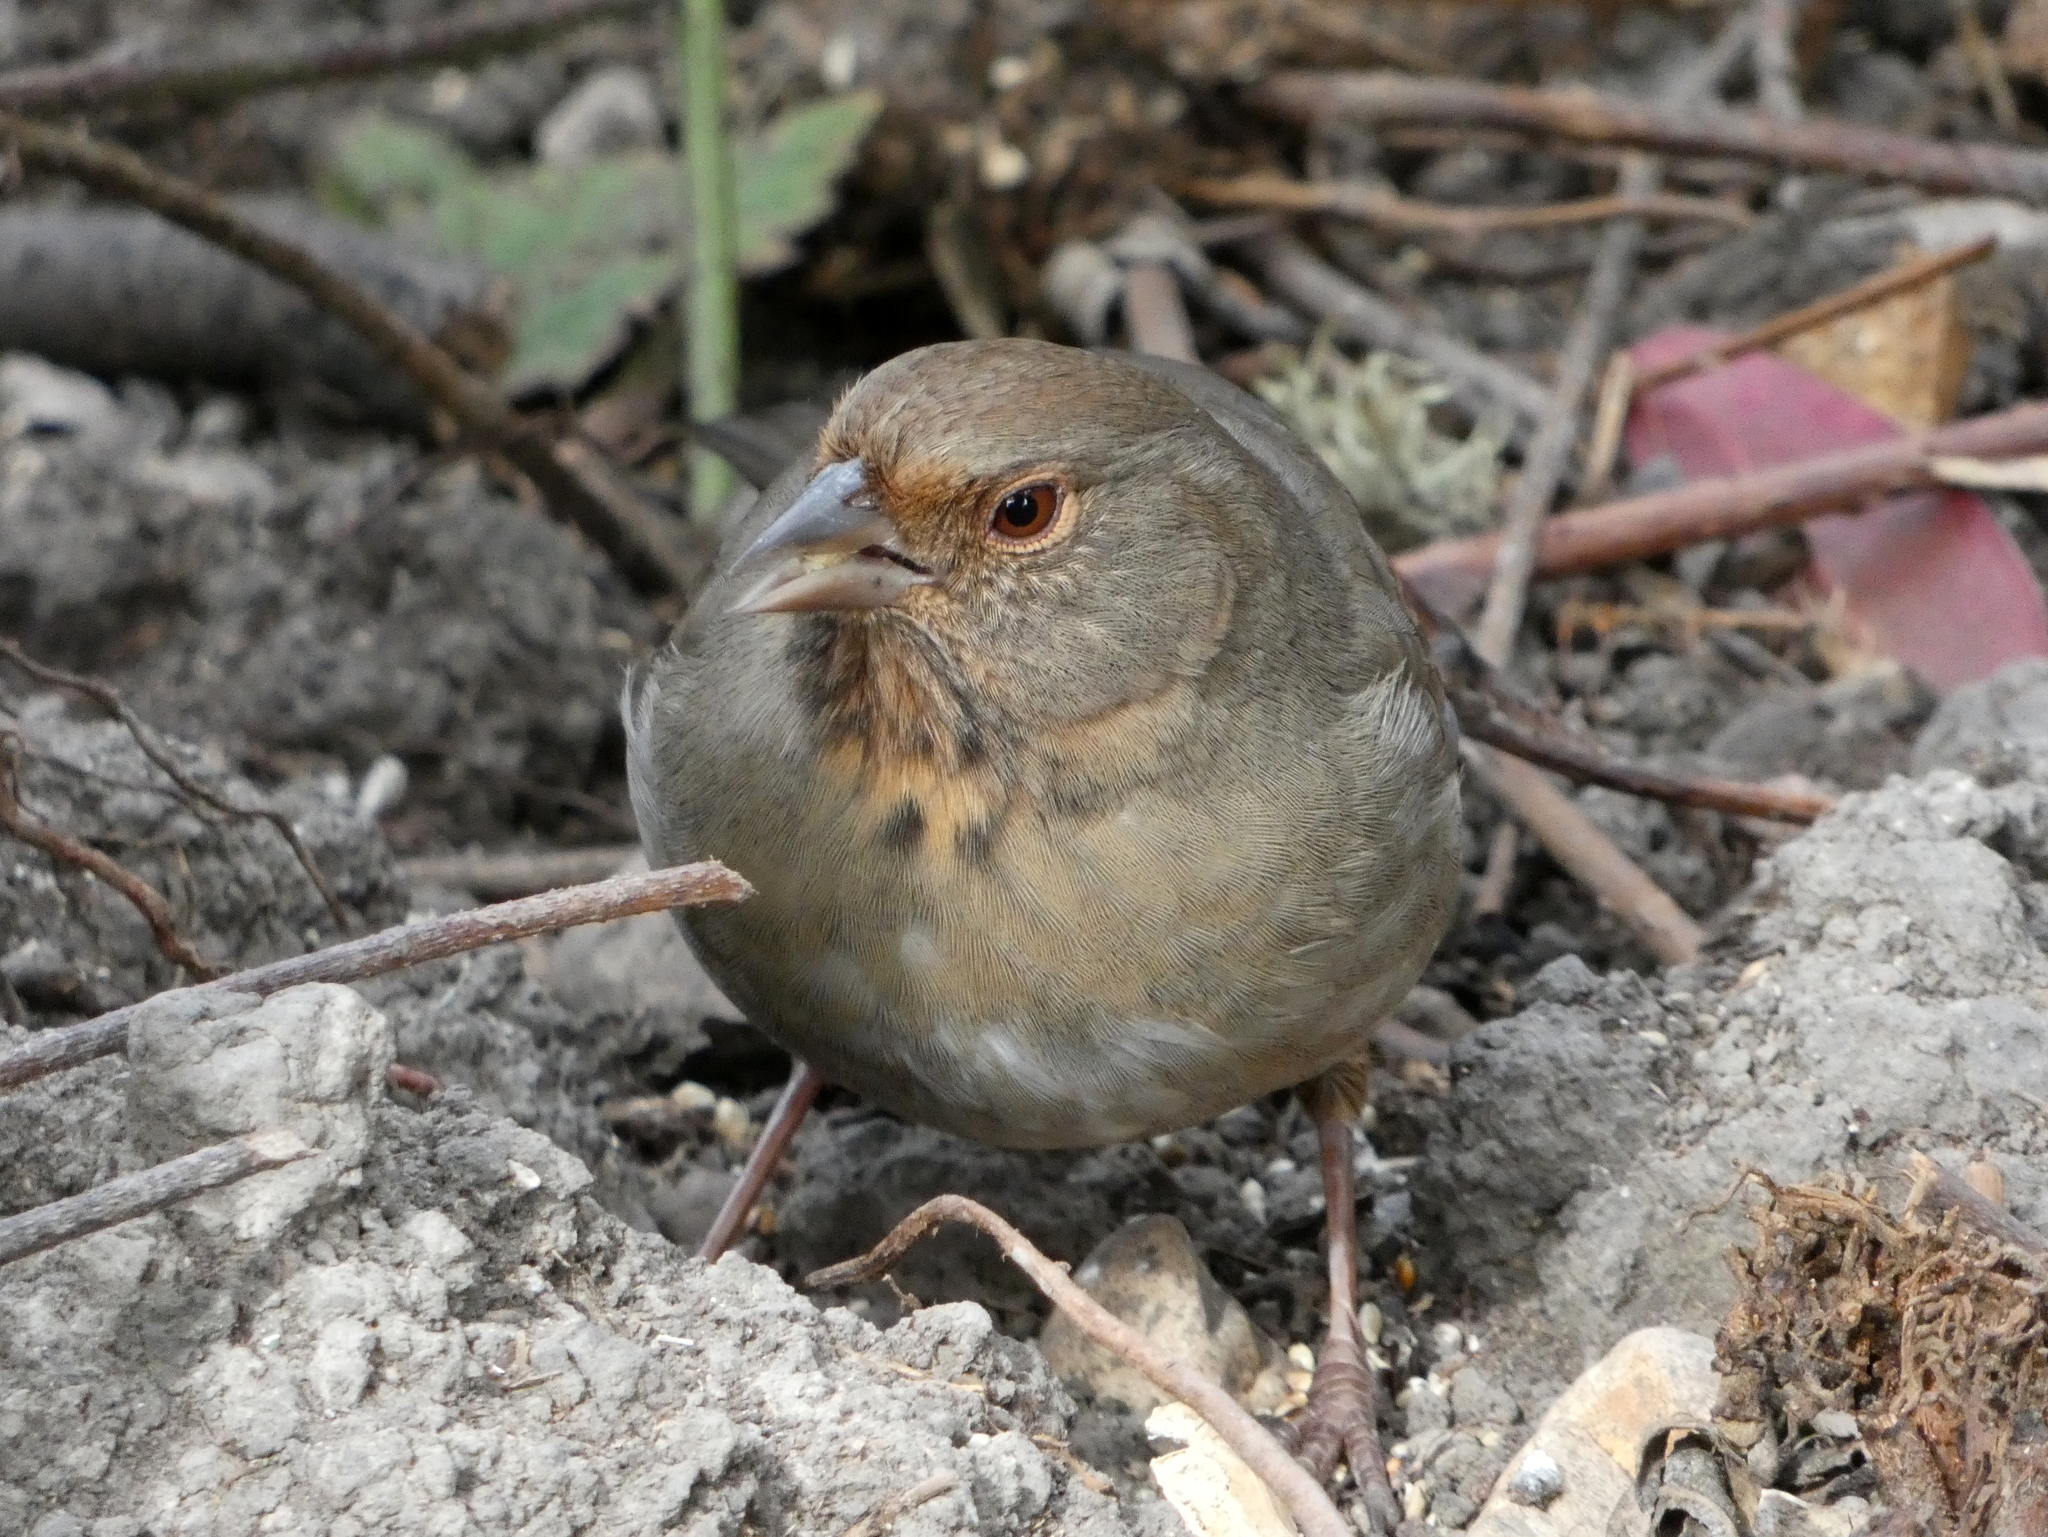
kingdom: Animalia
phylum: Chordata
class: Aves
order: Passeriformes
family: Passerellidae
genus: Melozone
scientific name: Melozone crissalis
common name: California towhee
